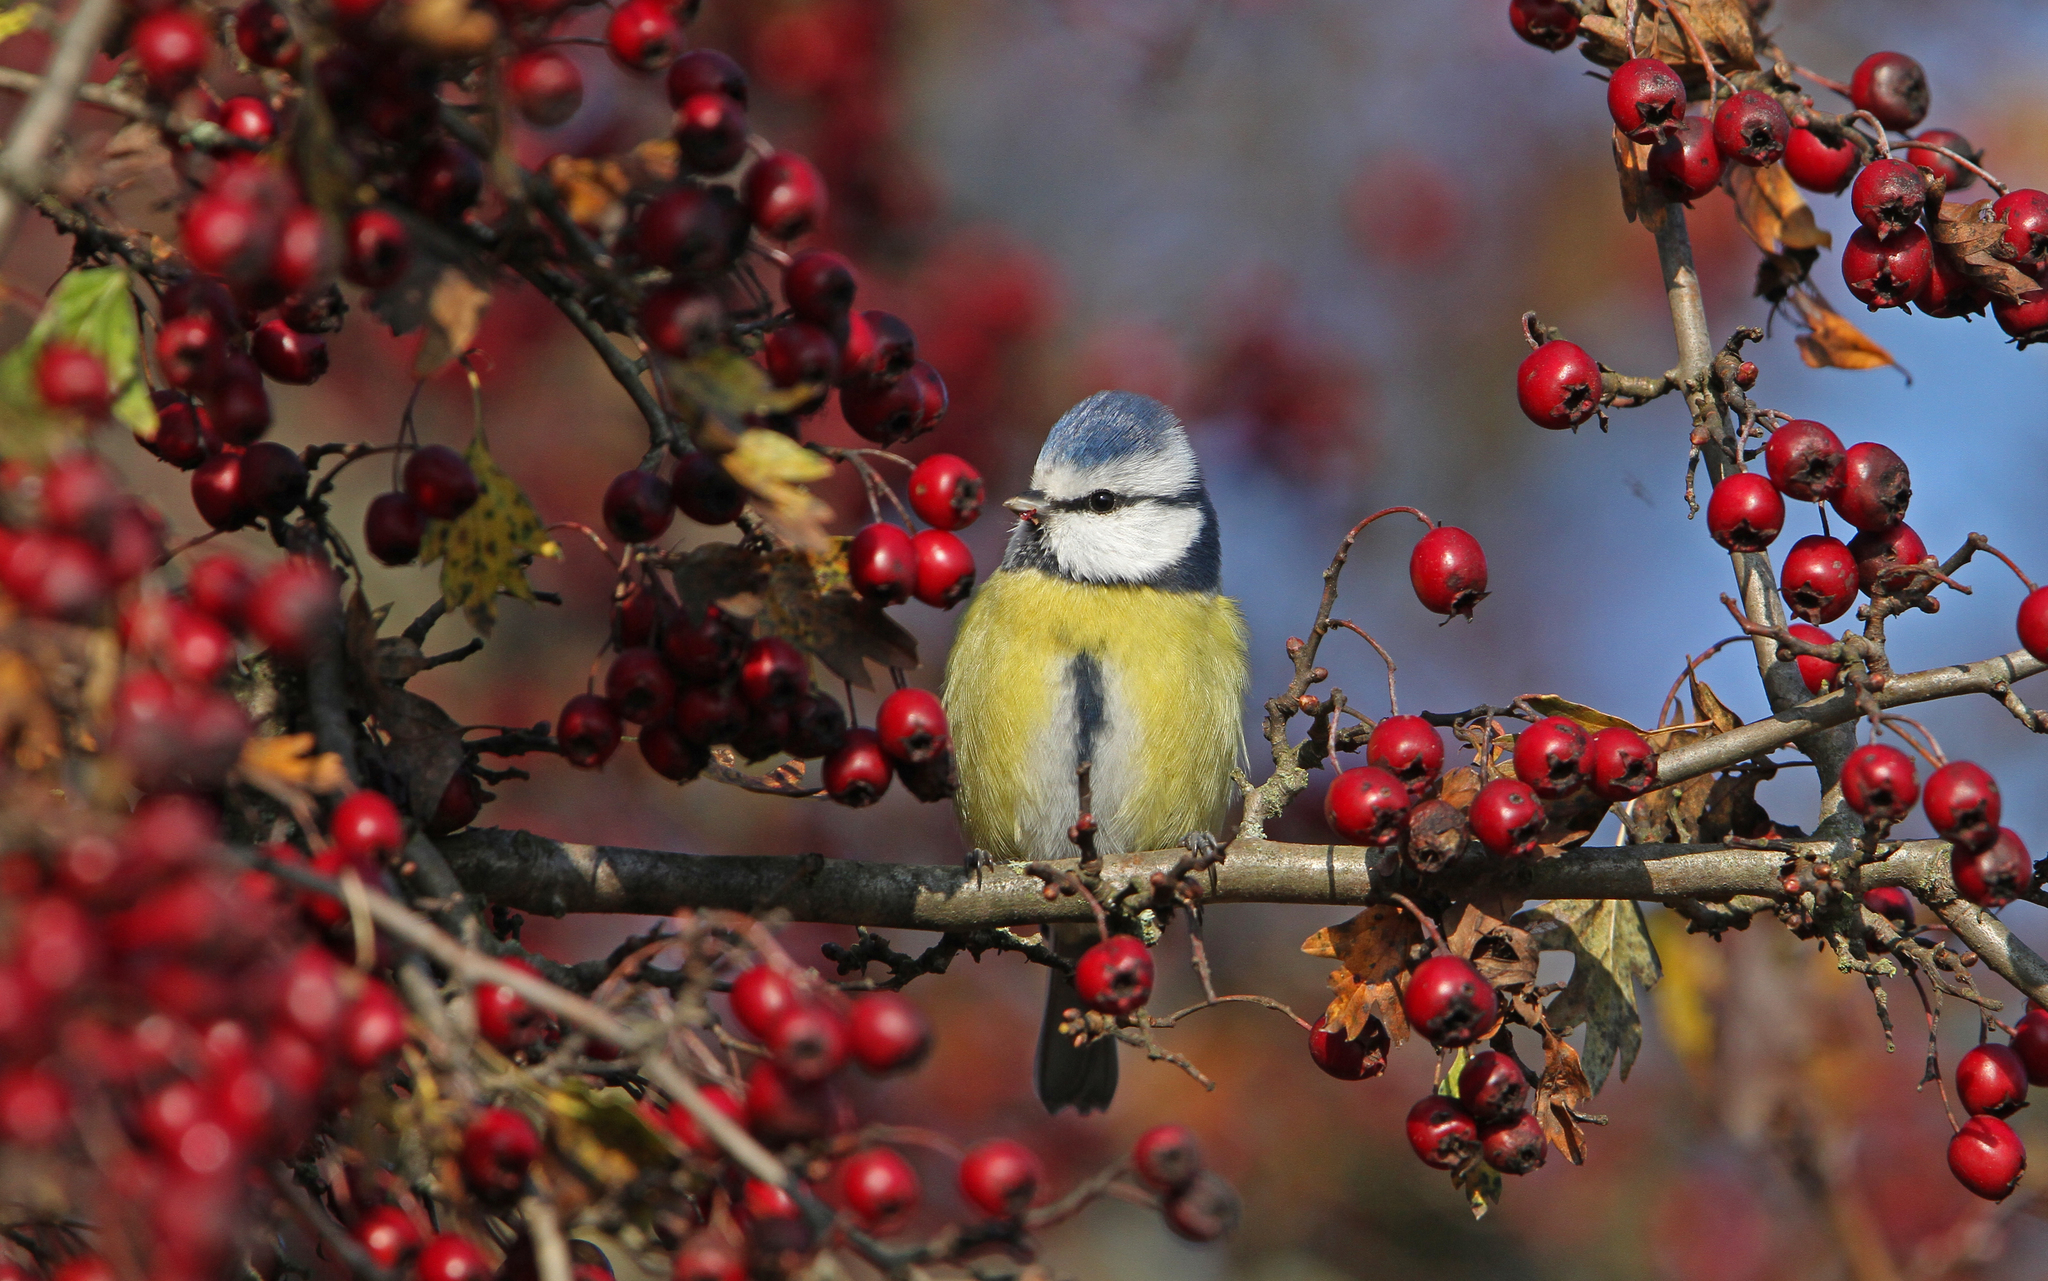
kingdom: Animalia
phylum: Chordata
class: Aves
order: Passeriformes
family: Paridae
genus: Cyanistes
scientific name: Cyanistes caeruleus
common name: Eurasian blue tit
